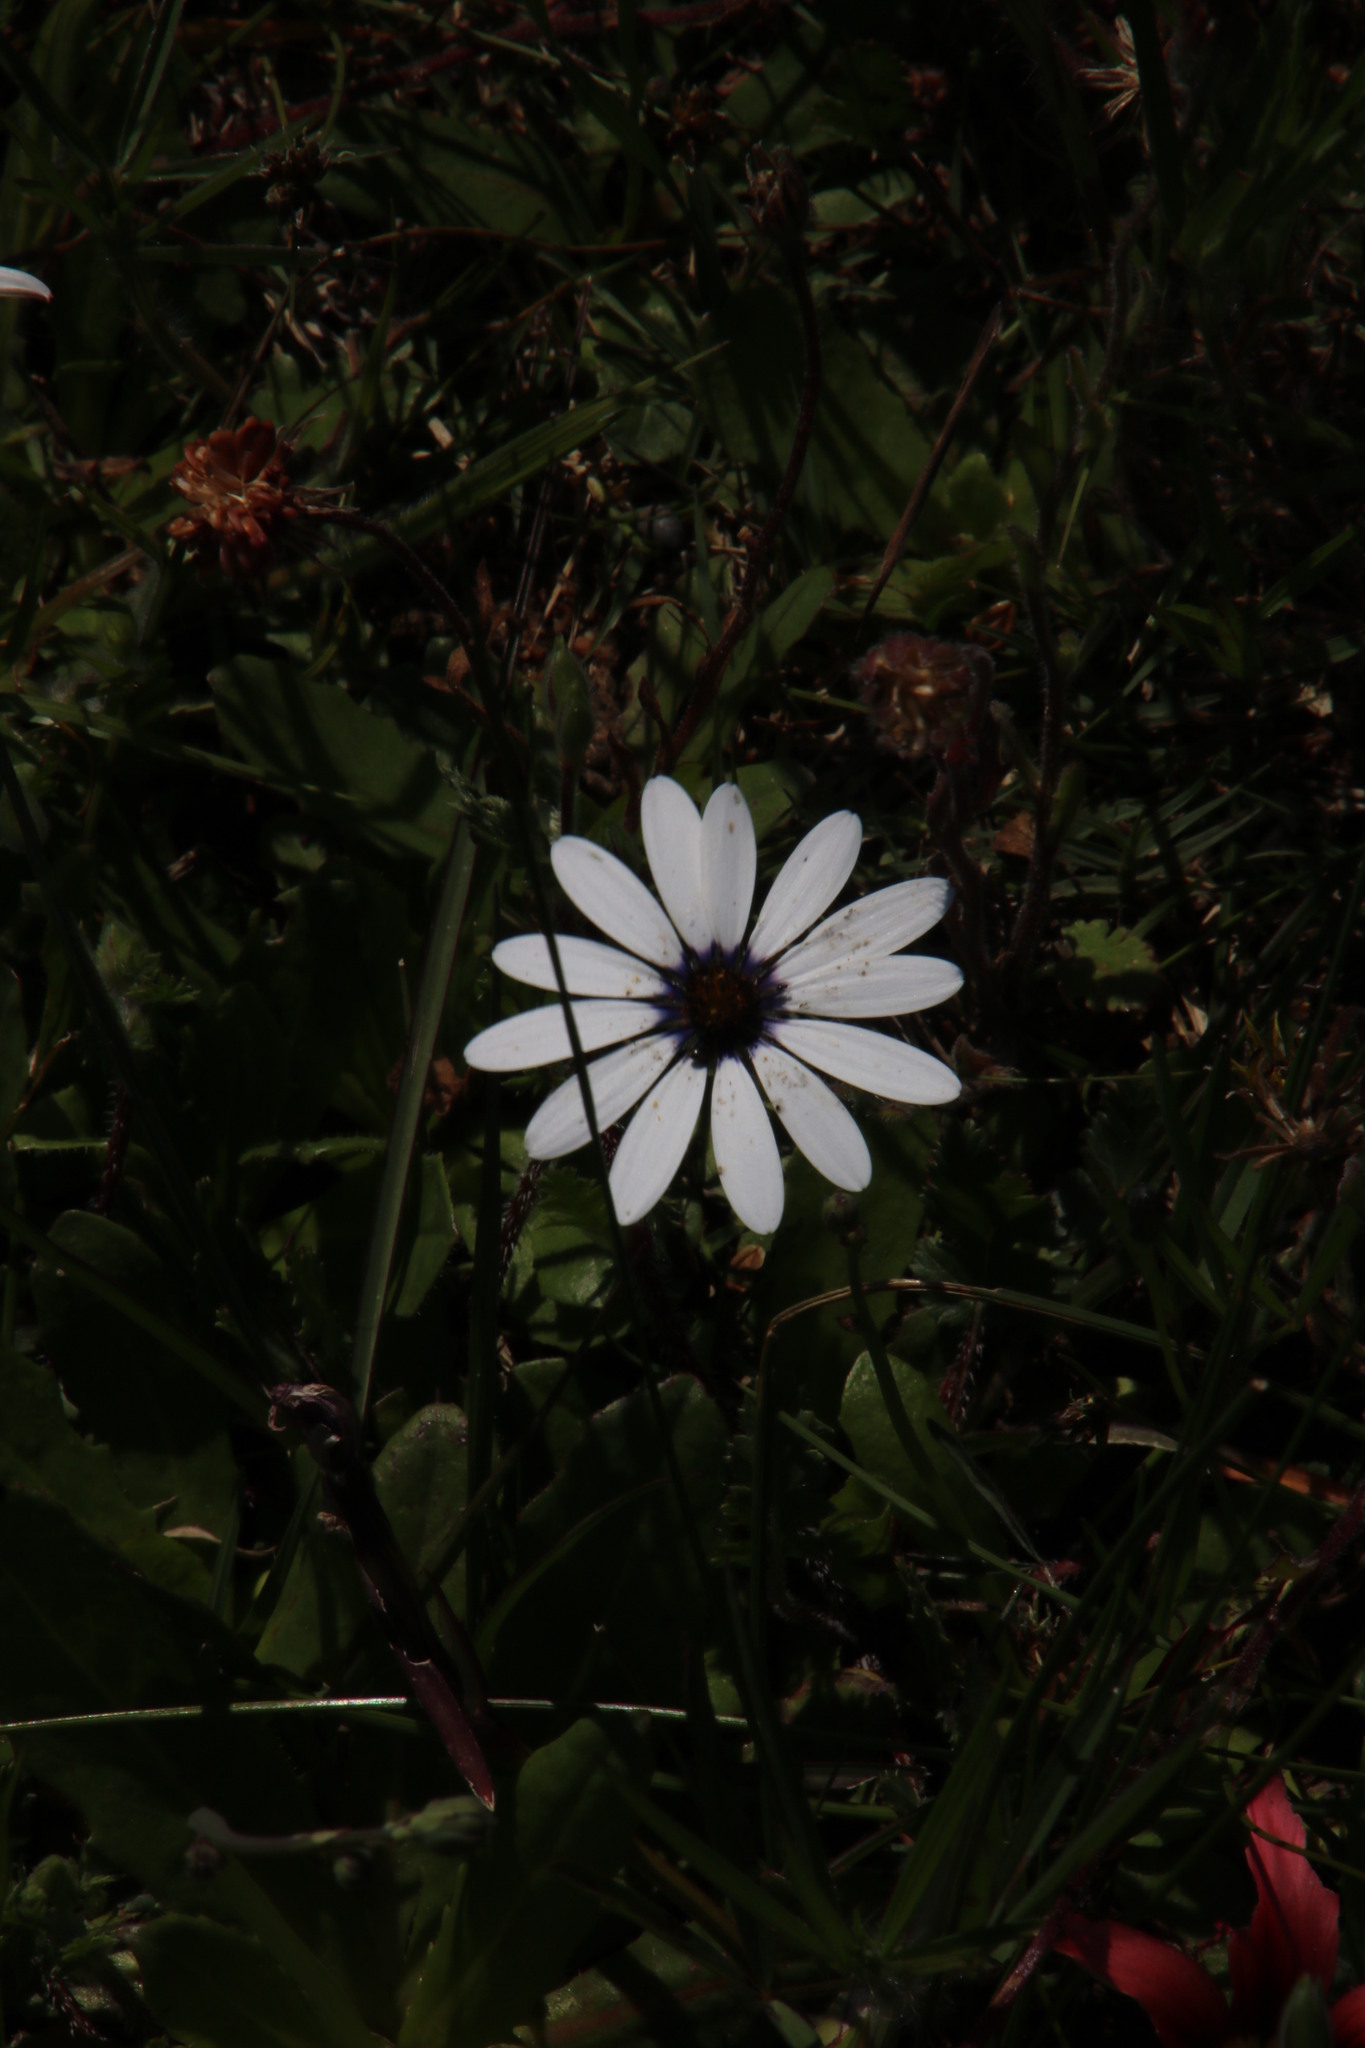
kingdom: Plantae
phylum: Tracheophyta
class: Magnoliopsida
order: Asterales
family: Asteraceae
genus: Dimorphotheca
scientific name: Dimorphotheca pluvialis
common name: Weather prophet
